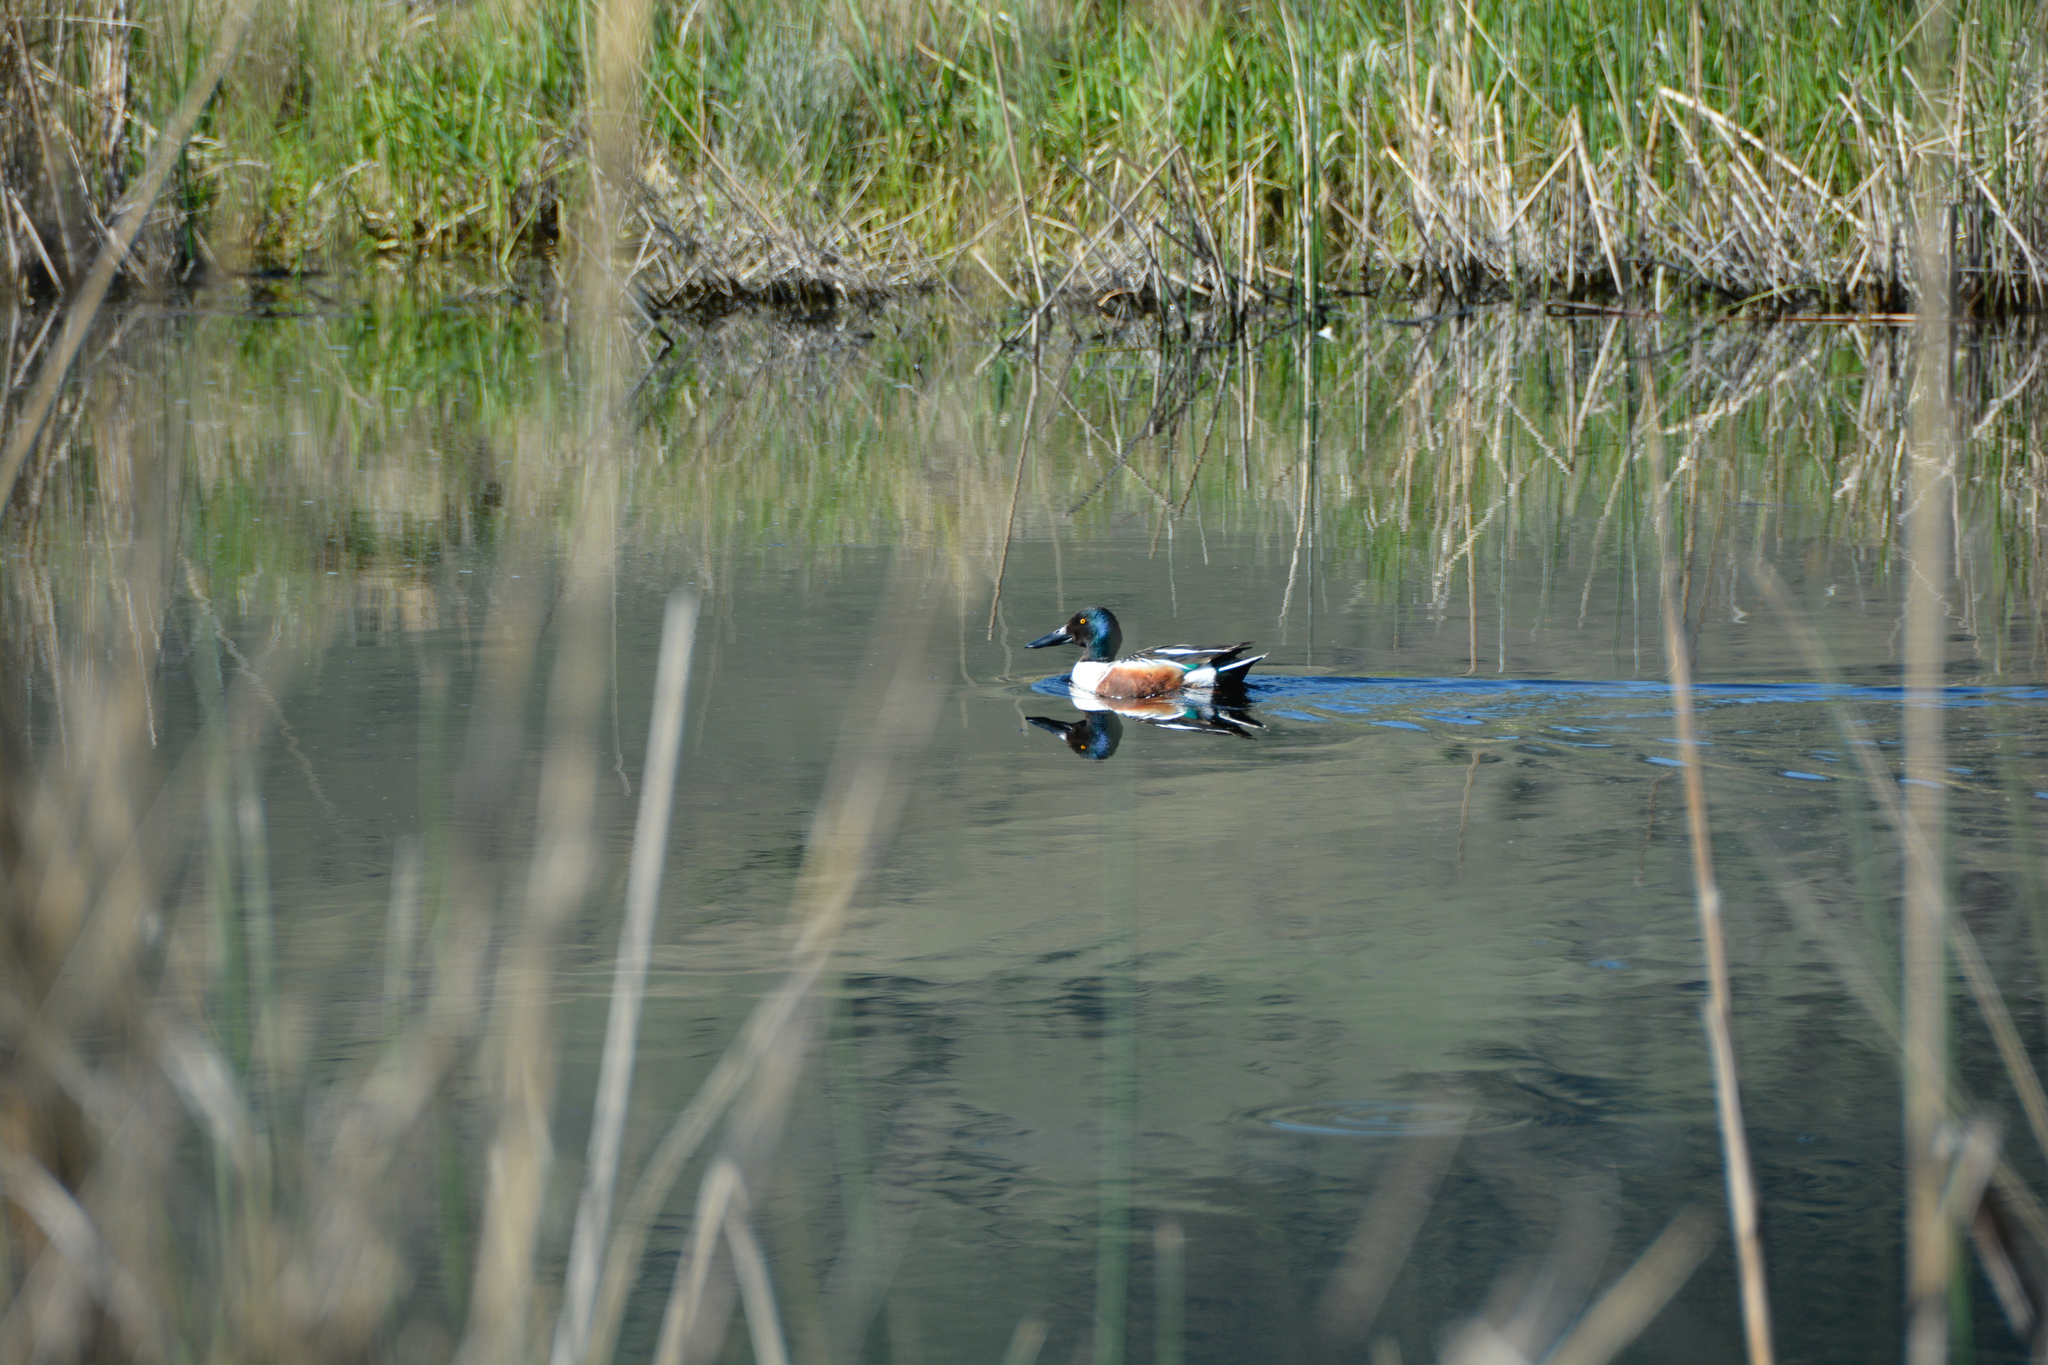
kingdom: Animalia
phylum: Chordata
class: Aves
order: Anseriformes
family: Anatidae
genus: Spatula
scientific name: Spatula clypeata
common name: Northern shoveler
